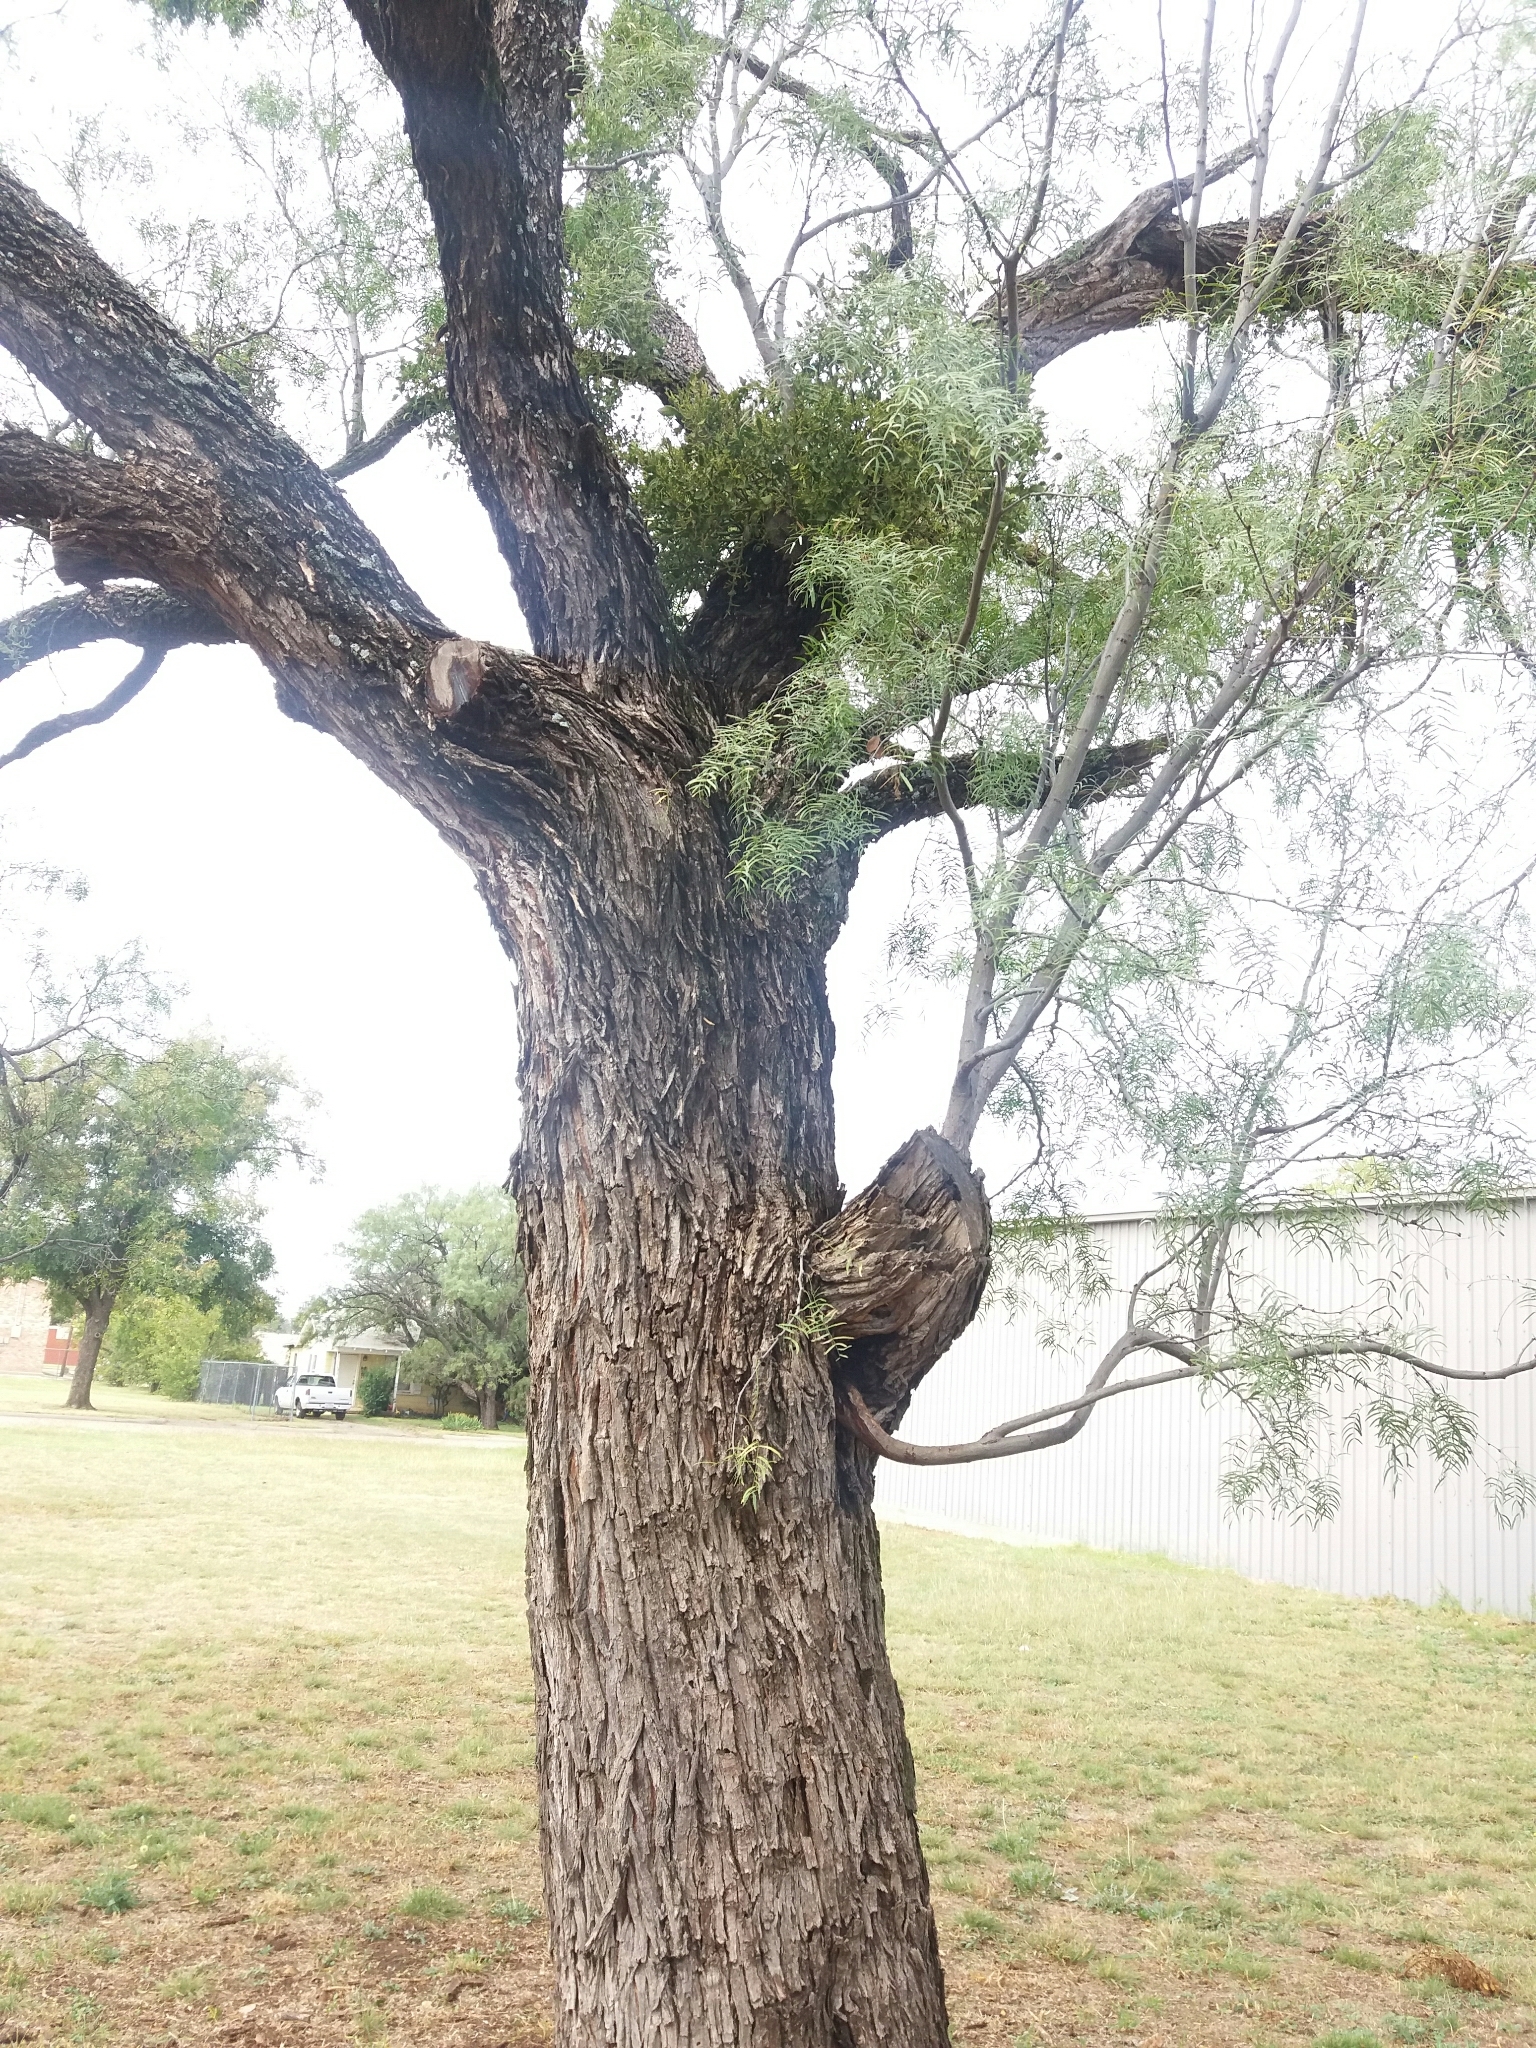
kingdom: Plantae
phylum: Tracheophyta
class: Magnoliopsida
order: Fabales
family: Fabaceae
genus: Prosopis
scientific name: Prosopis glandulosa
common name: Honey mesquite
